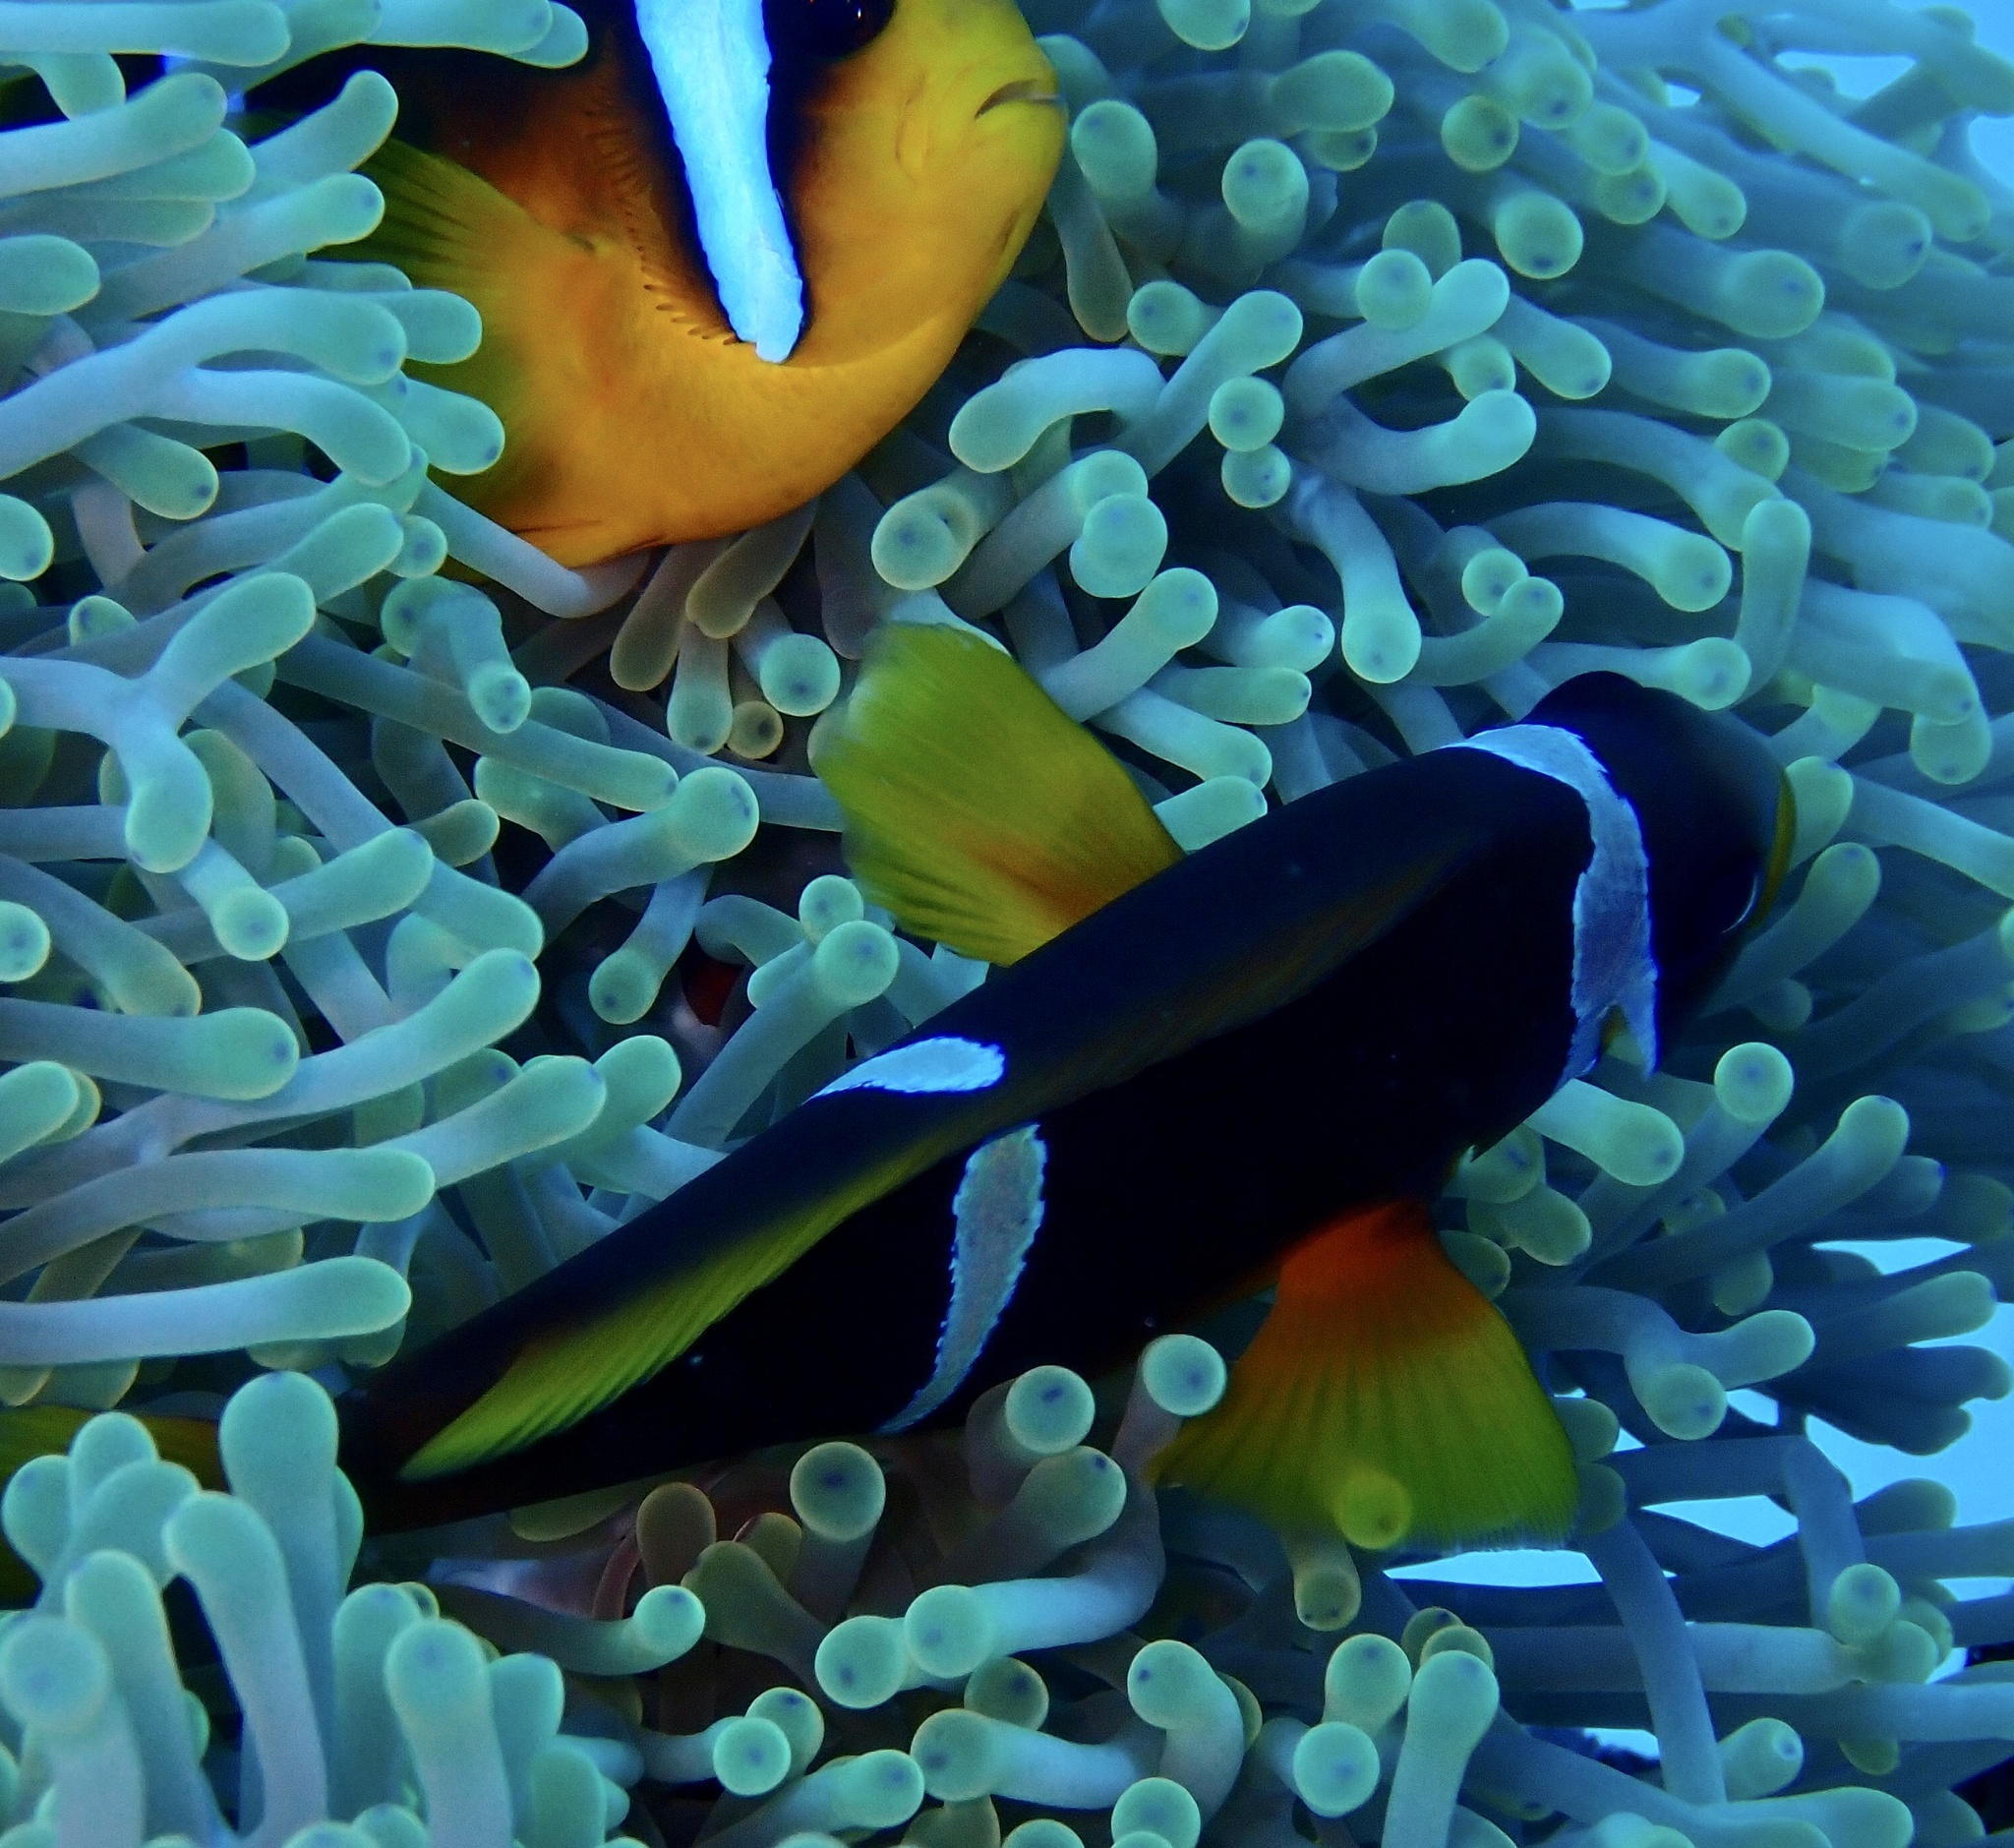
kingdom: Animalia
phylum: Chordata
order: Perciformes
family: Pomacentridae
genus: Amphiprion
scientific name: Amphiprion bicinctus
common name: Two-banded anemonefish
